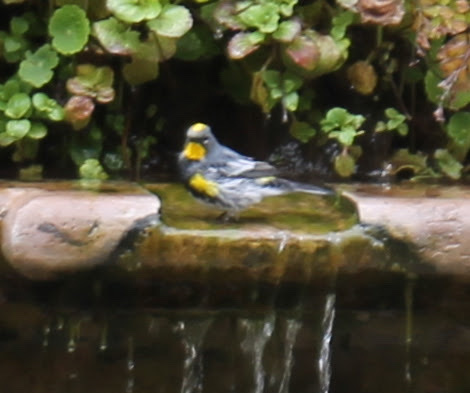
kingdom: Animalia
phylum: Chordata
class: Aves
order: Passeriformes
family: Parulidae
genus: Setophaga
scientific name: Setophaga coronata
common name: Myrtle warbler
